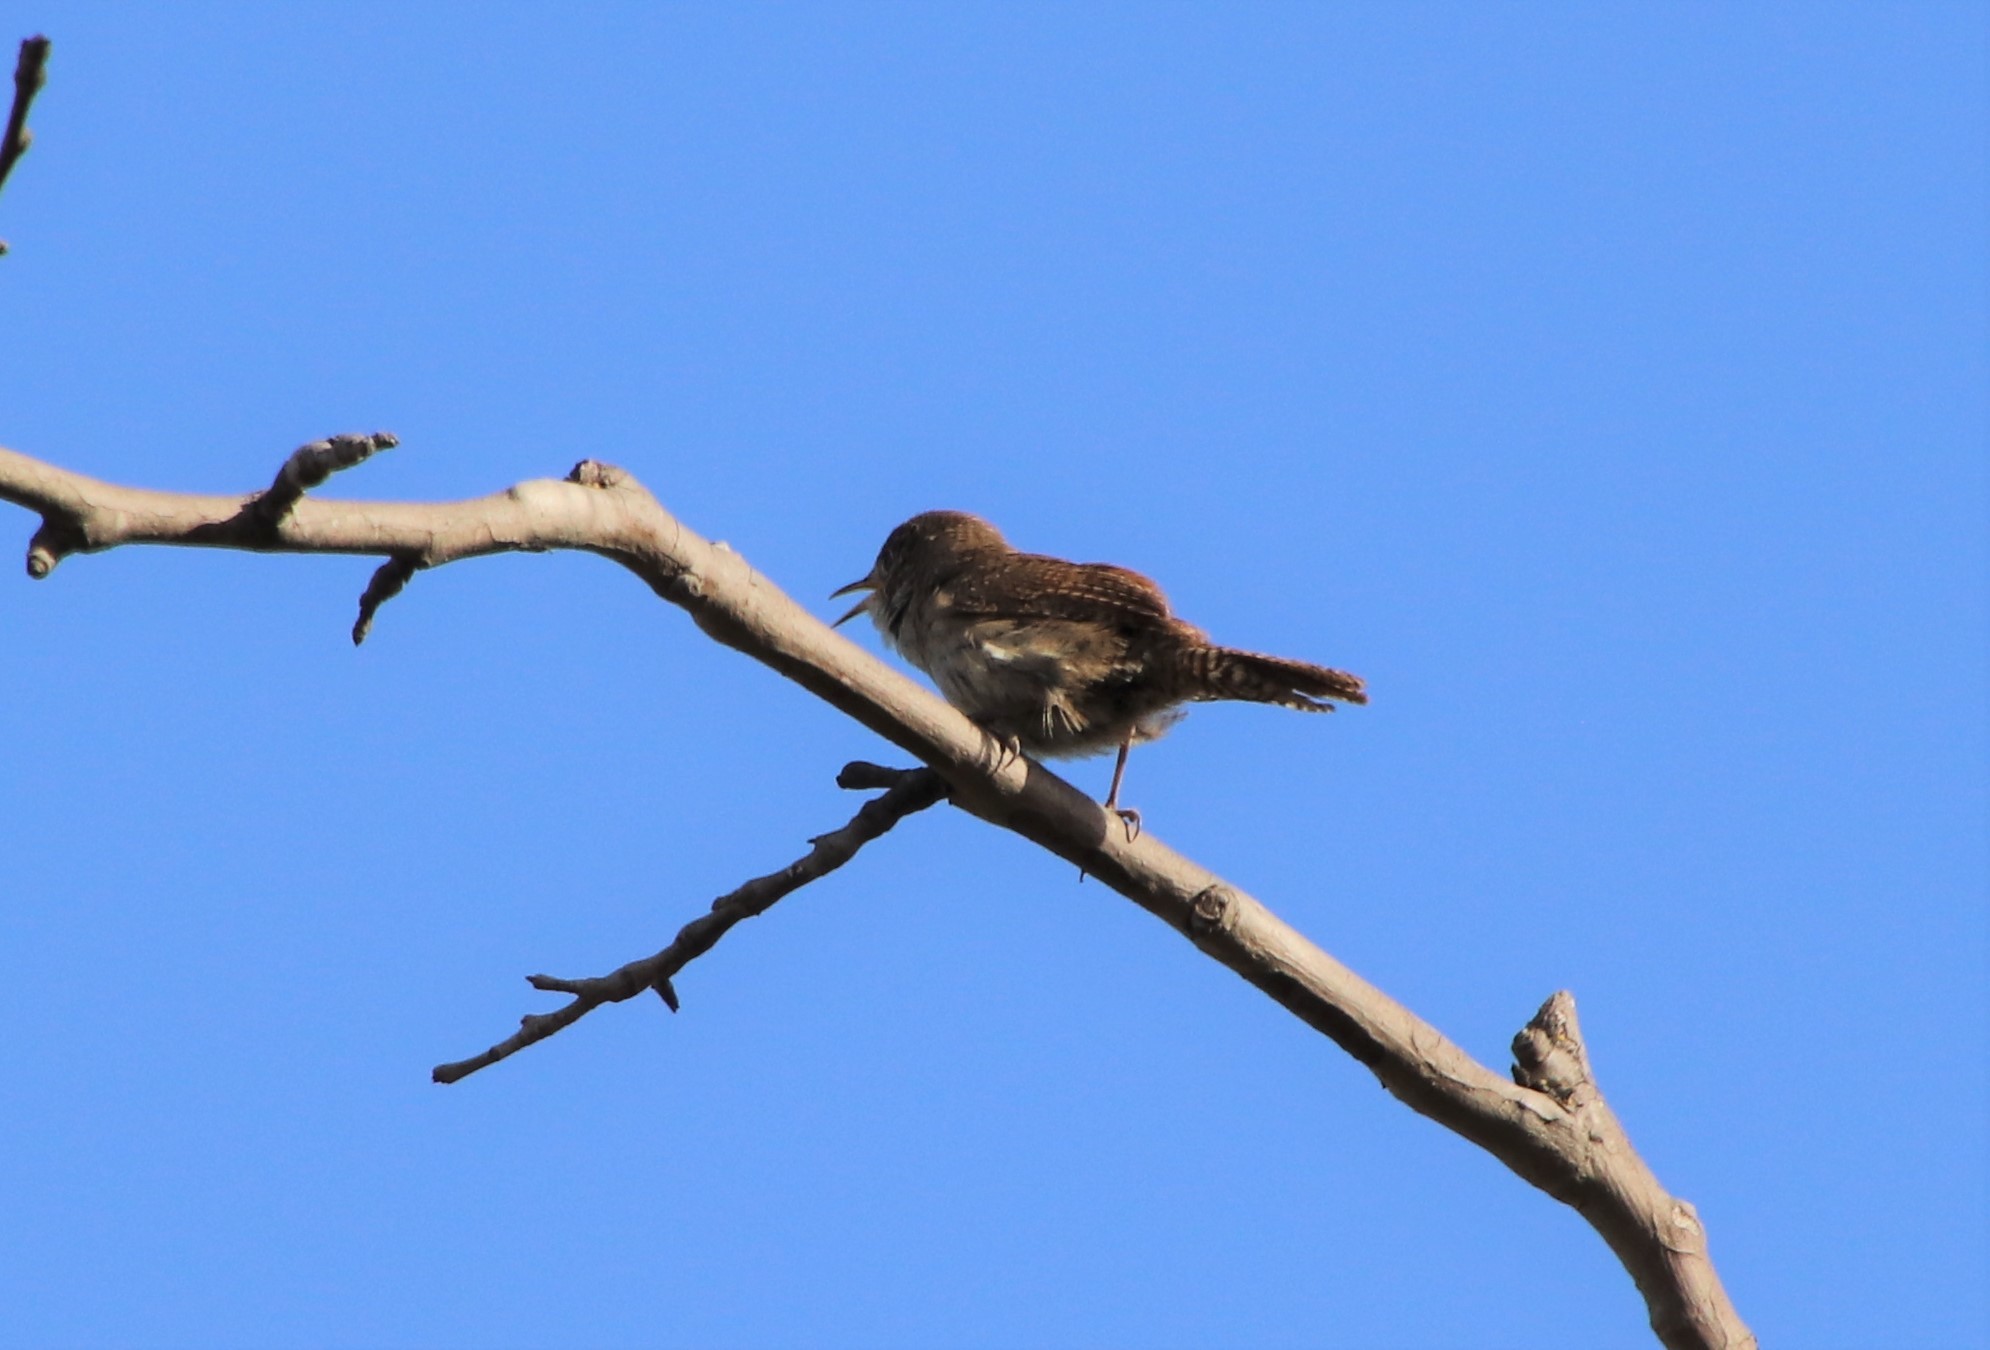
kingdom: Animalia
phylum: Chordata
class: Aves
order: Passeriformes
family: Troglodytidae
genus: Troglodytes
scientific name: Troglodytes aedon
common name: House wren
